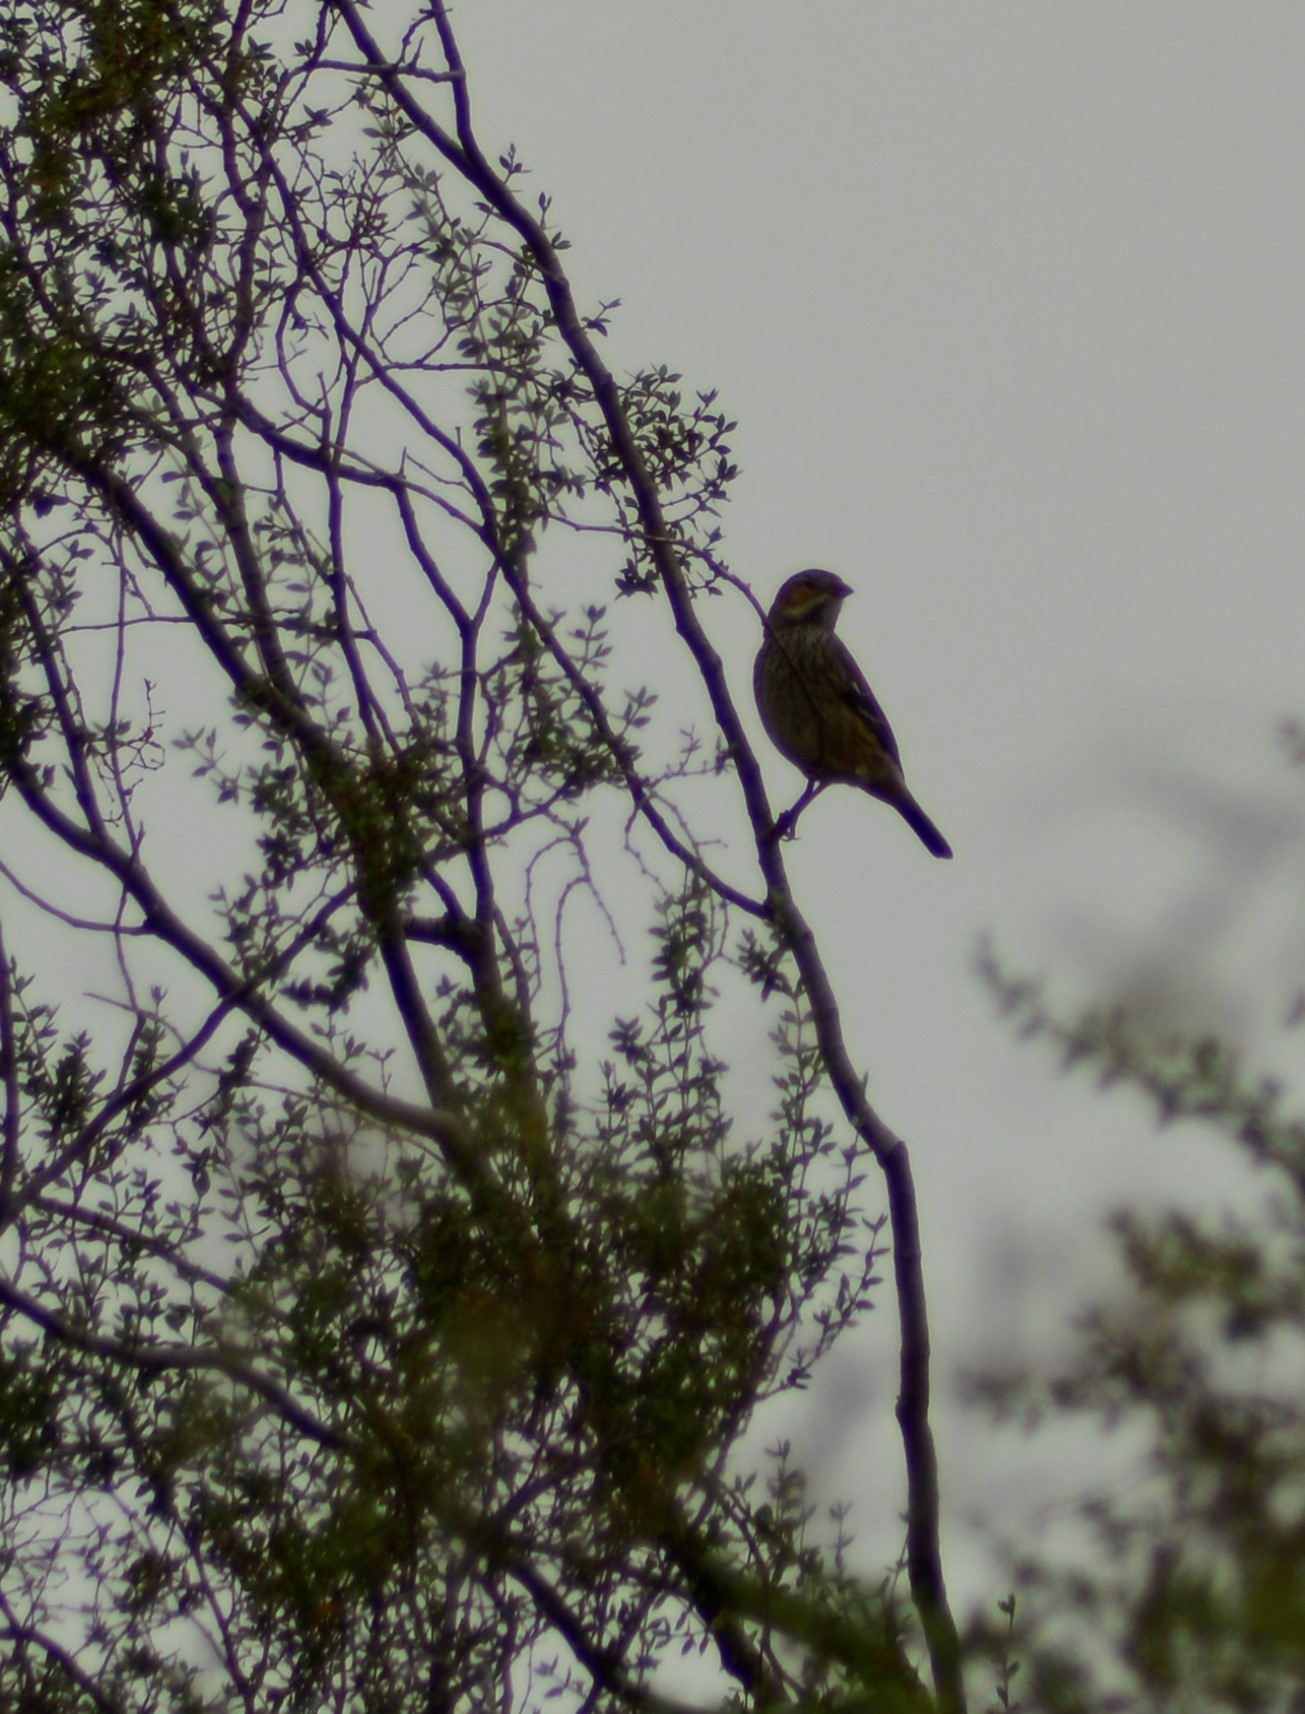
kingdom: Animalia
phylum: Chordata
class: Aves
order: Passeriformes
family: Thraupidae
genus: Rhopospina
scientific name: Rhopospina fruticeti
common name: Mourning sierra finch
